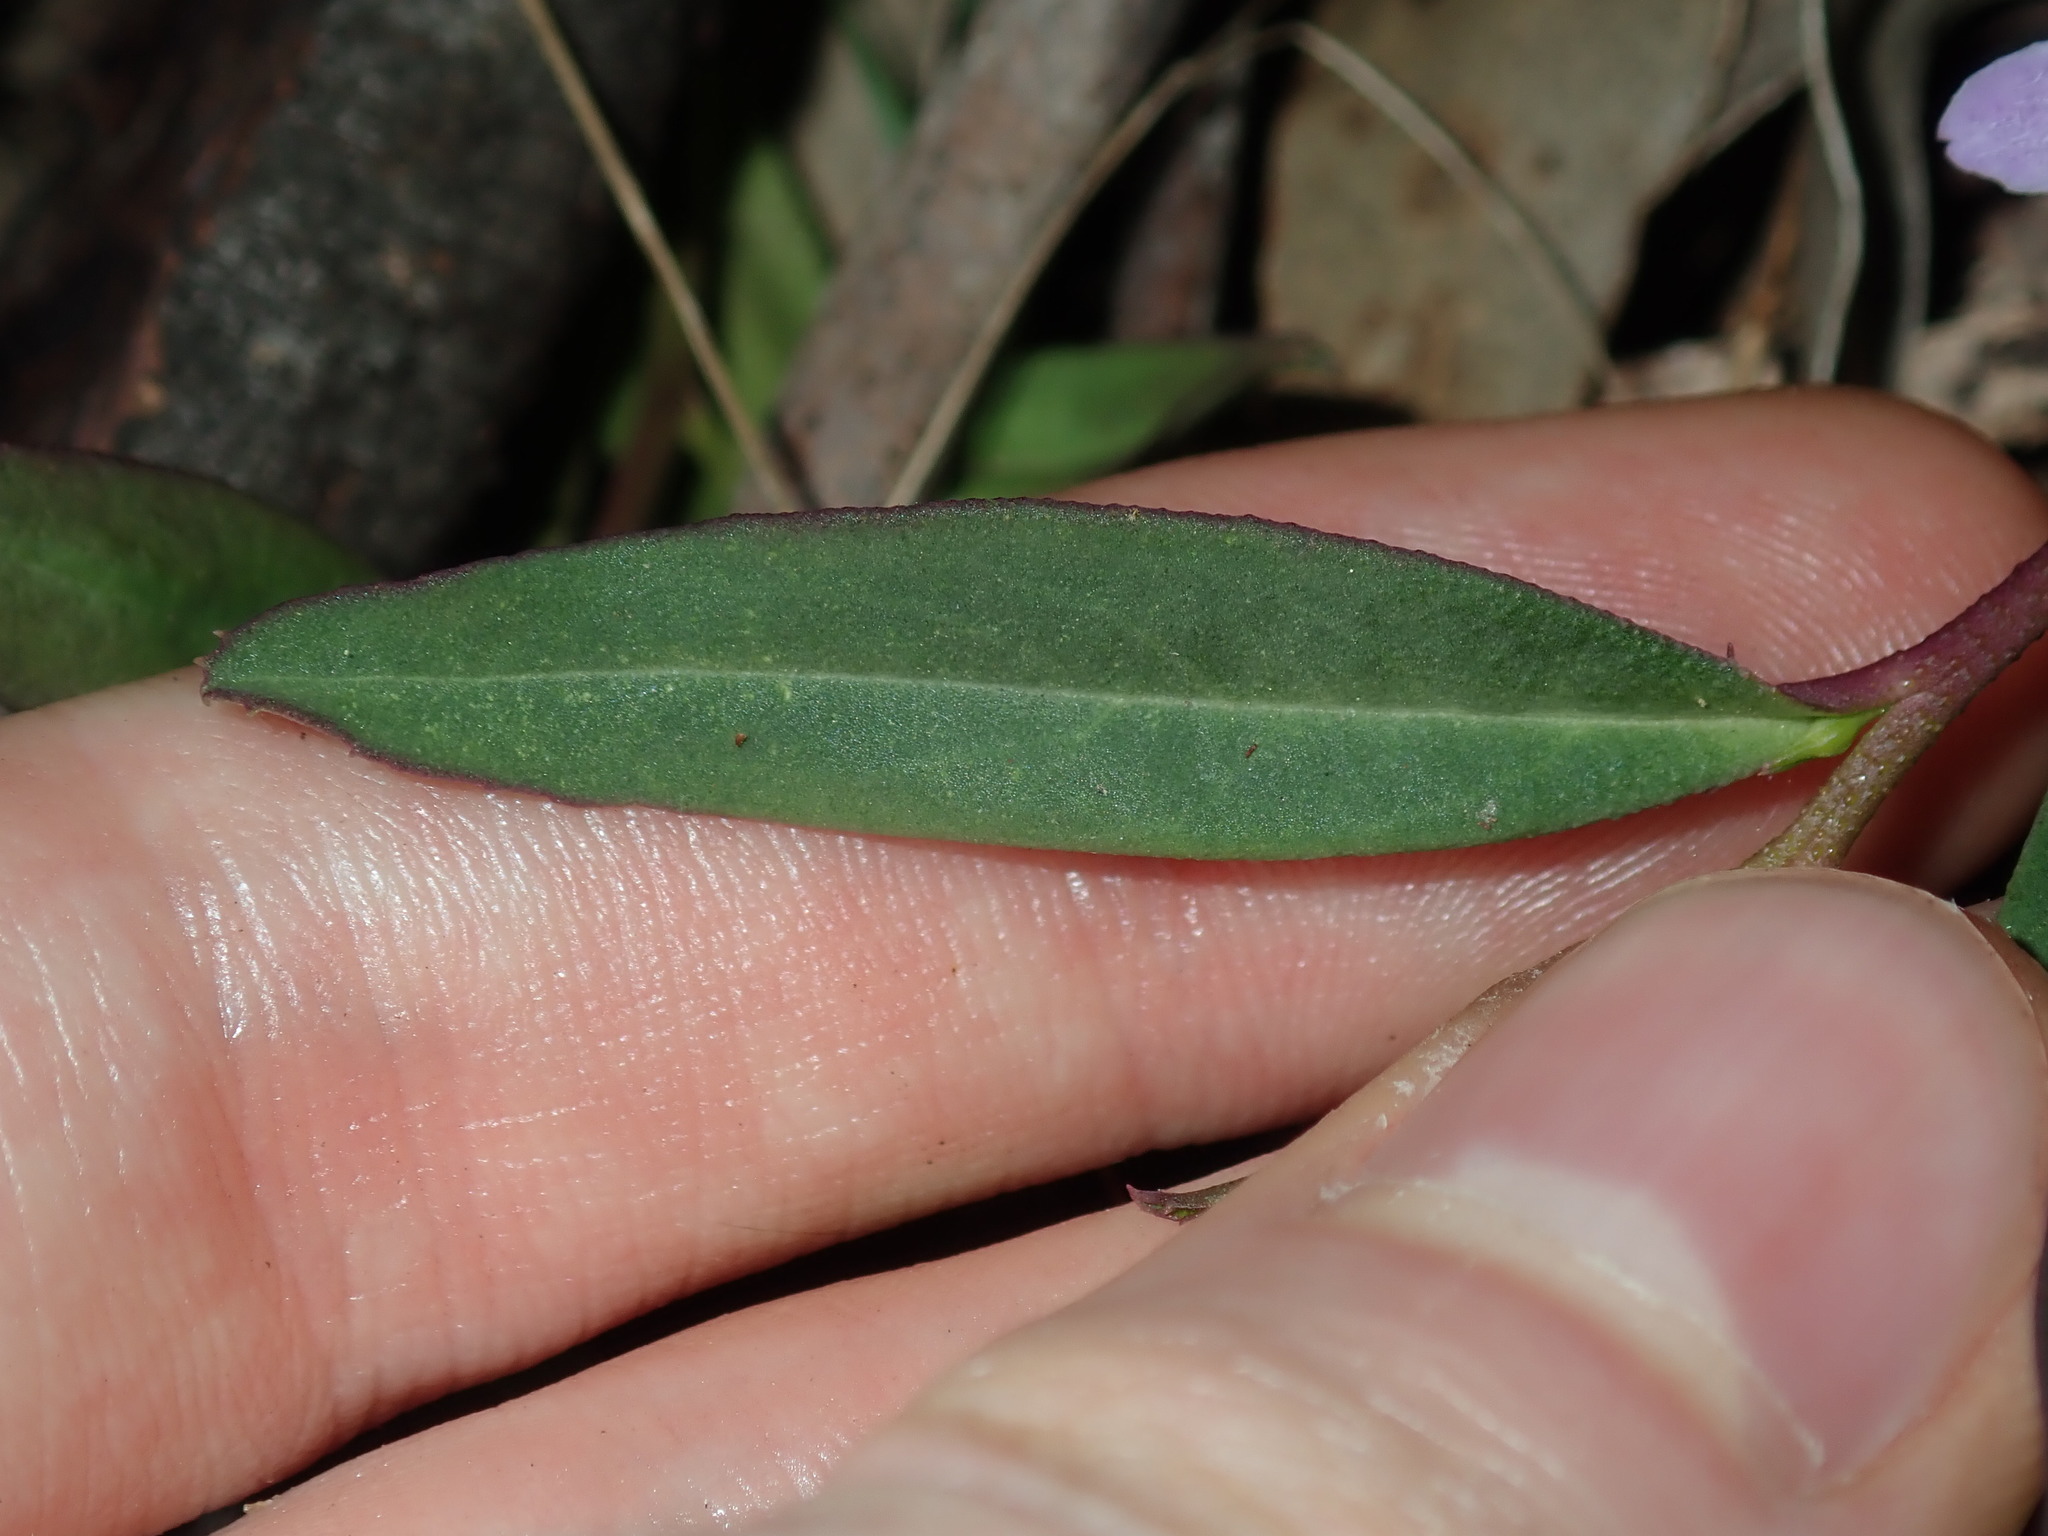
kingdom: Plantae
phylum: Tracheophyta
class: Magnoliopsida
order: Lamiales
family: Scrophulariaceae
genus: Eremophila
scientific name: Eremophila debilis
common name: Winter-apple
